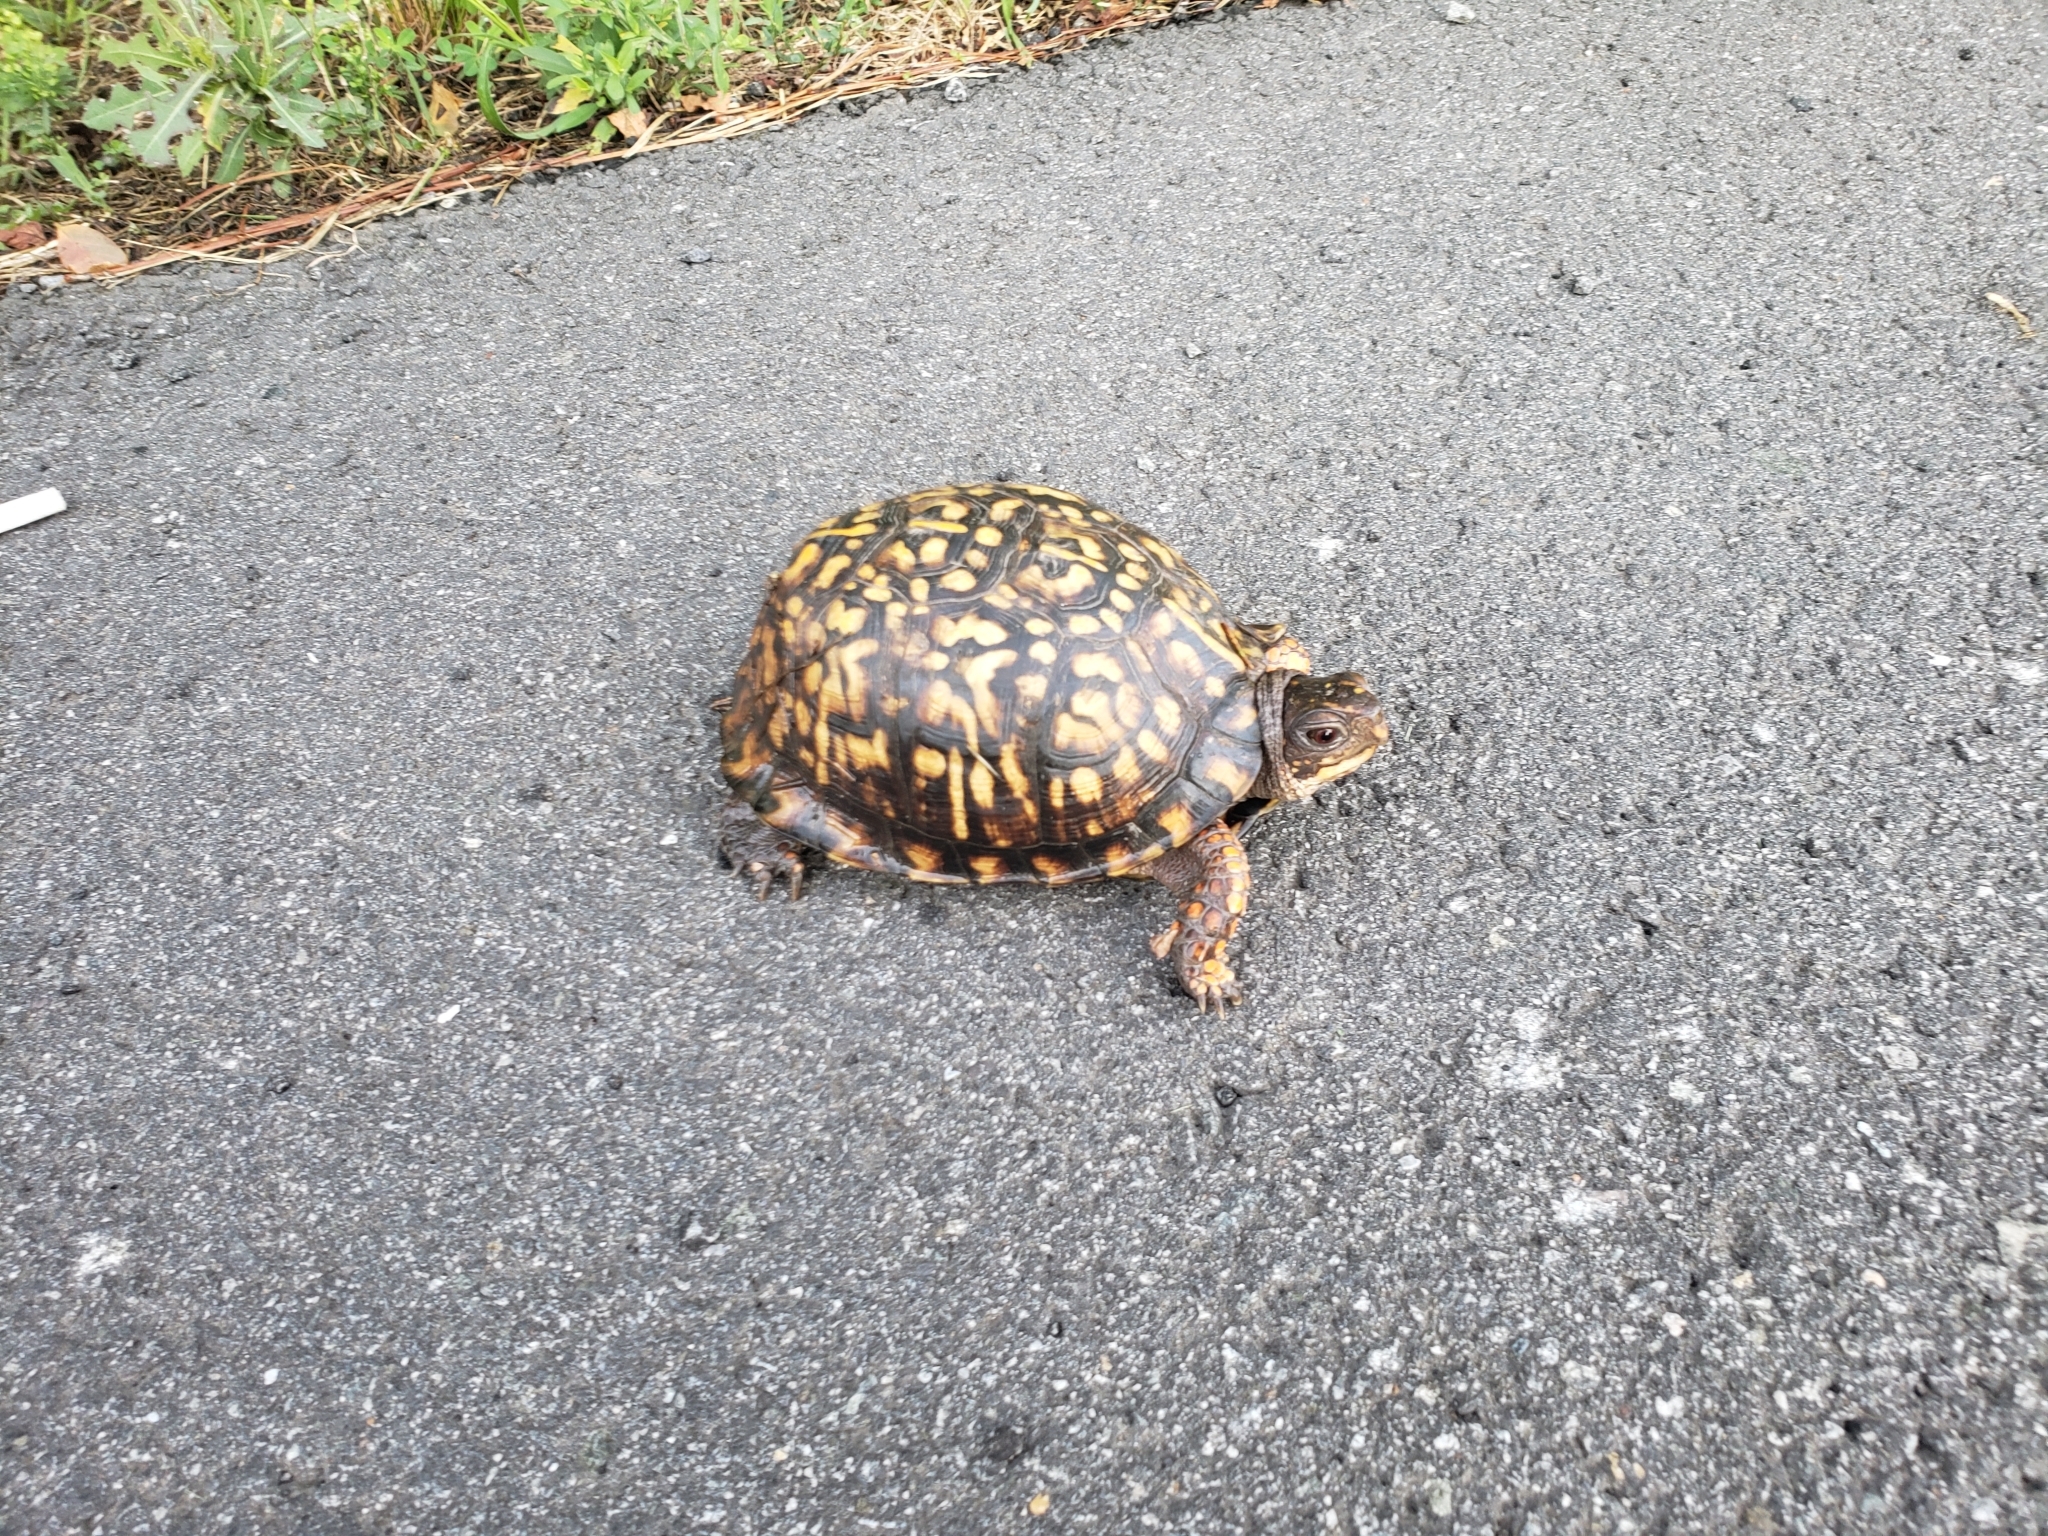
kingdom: Animalia
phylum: Chordata
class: Testudines
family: Emydidae
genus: Terrapene
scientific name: Terrapene carolina
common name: Common box turtle
